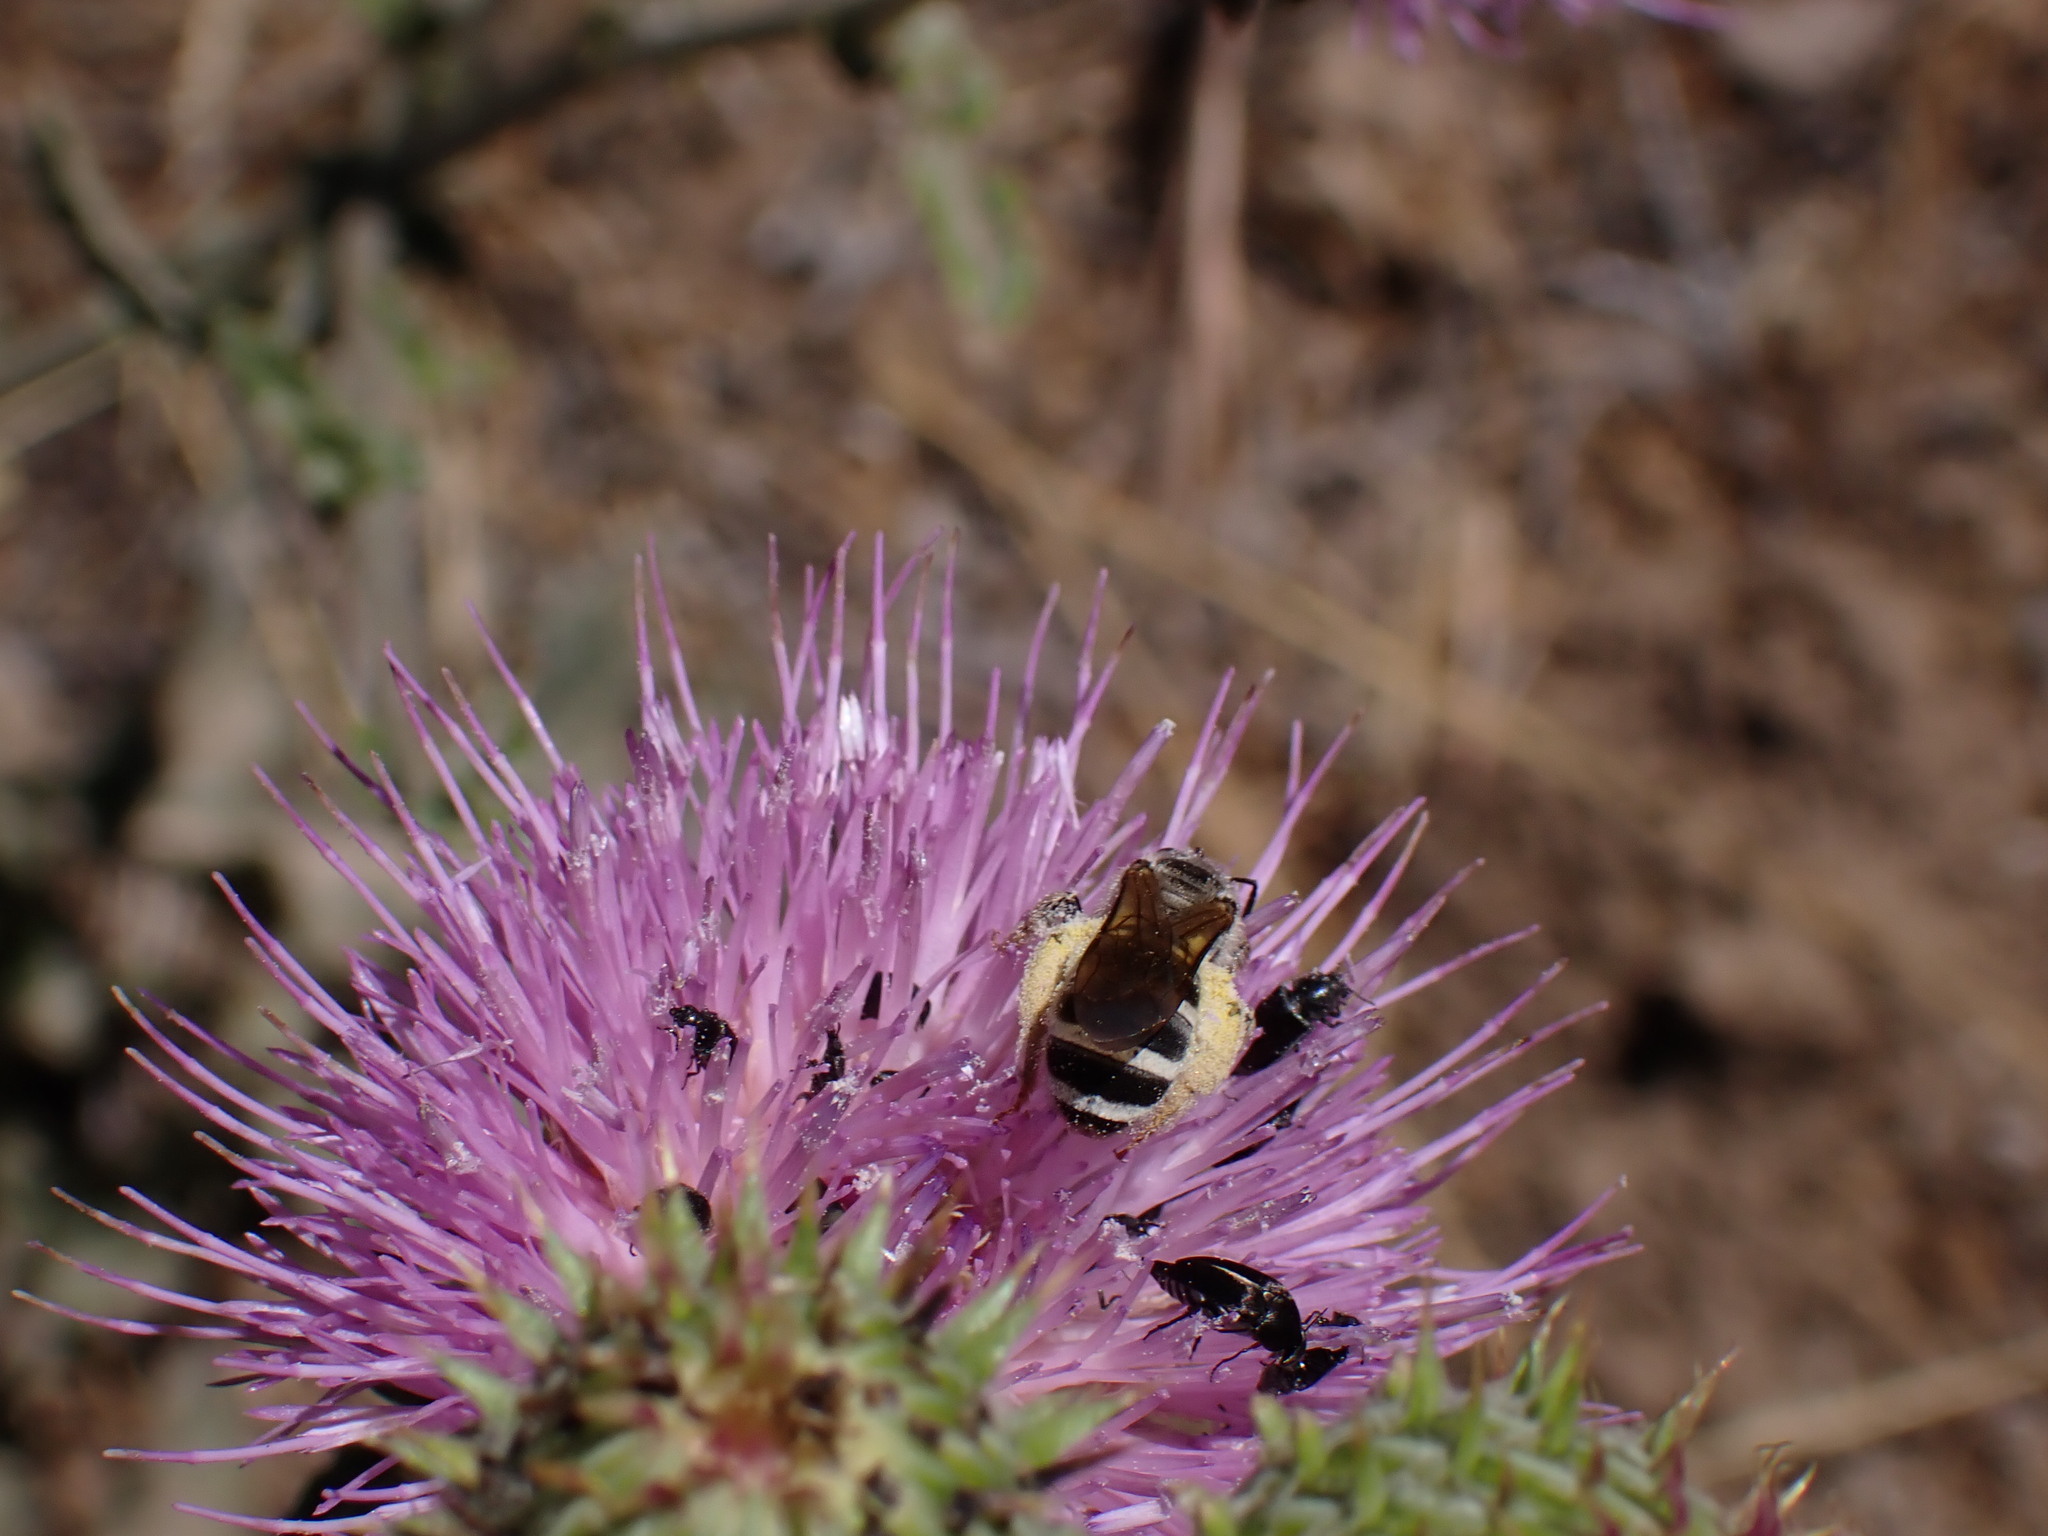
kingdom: Animalia
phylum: Arthropoda
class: Insecta
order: Hymenoptera
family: Halictidae
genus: Halictus
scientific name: Halictus farinosus
